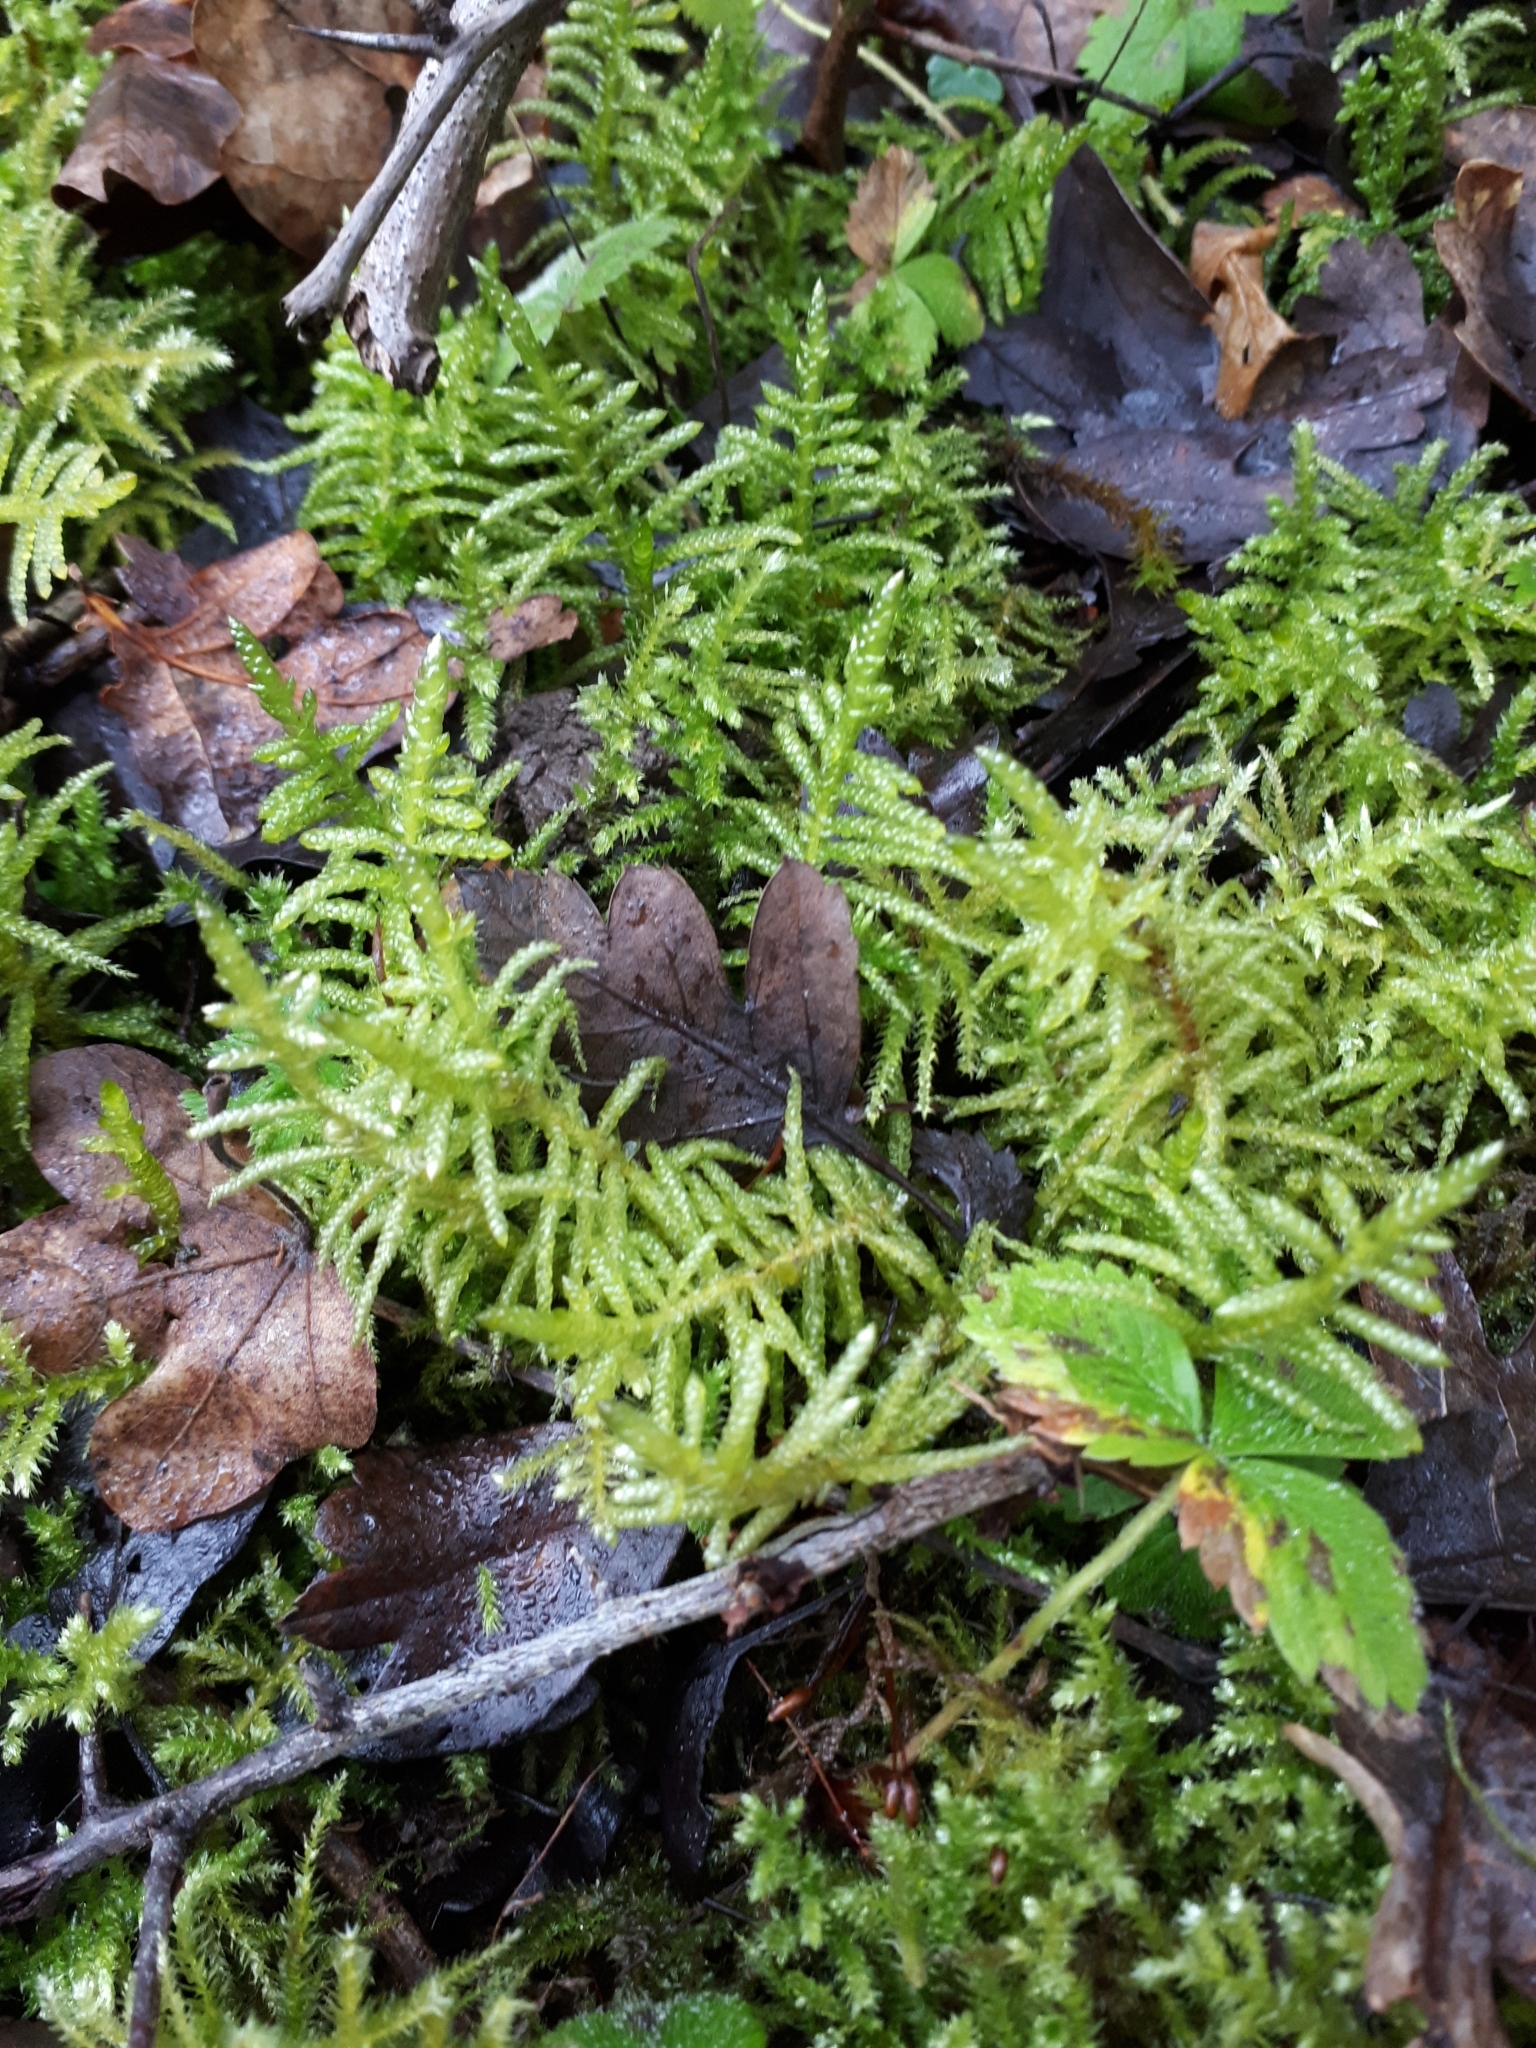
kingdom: Plantae
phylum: Bryophyta
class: Bryopsida
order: Hypnales
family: Brachytheciaceae
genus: Pseudoscleropodium
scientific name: Pseudoscleropodium purum
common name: Neat feather-moss
